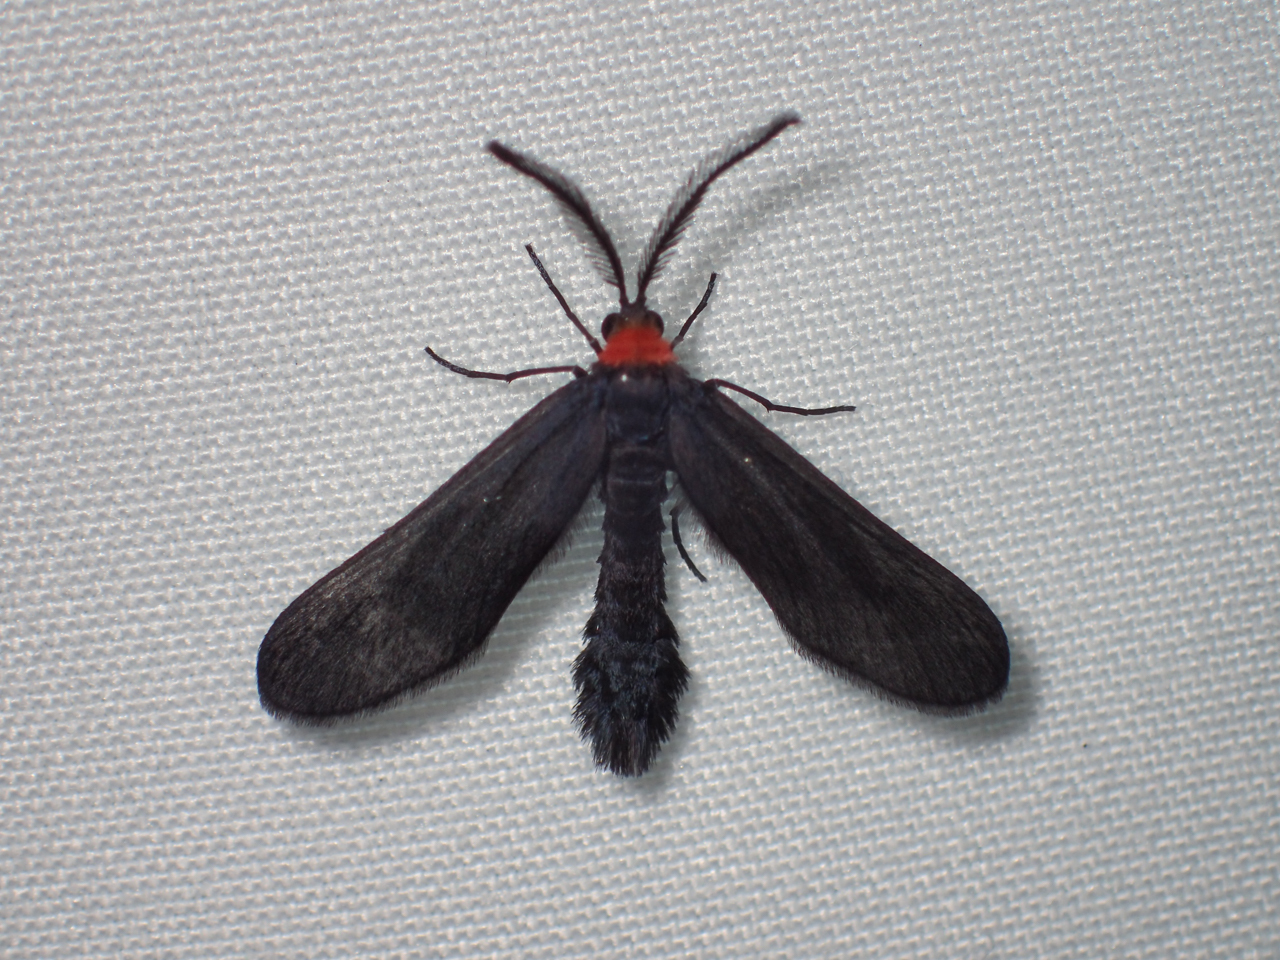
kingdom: Animalia
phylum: Arthropoda
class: Insecta
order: Lepidoptera
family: Zygaenidae
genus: Harrisina
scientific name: Harrisina americana
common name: Grapeleaf skeletonizer moth
